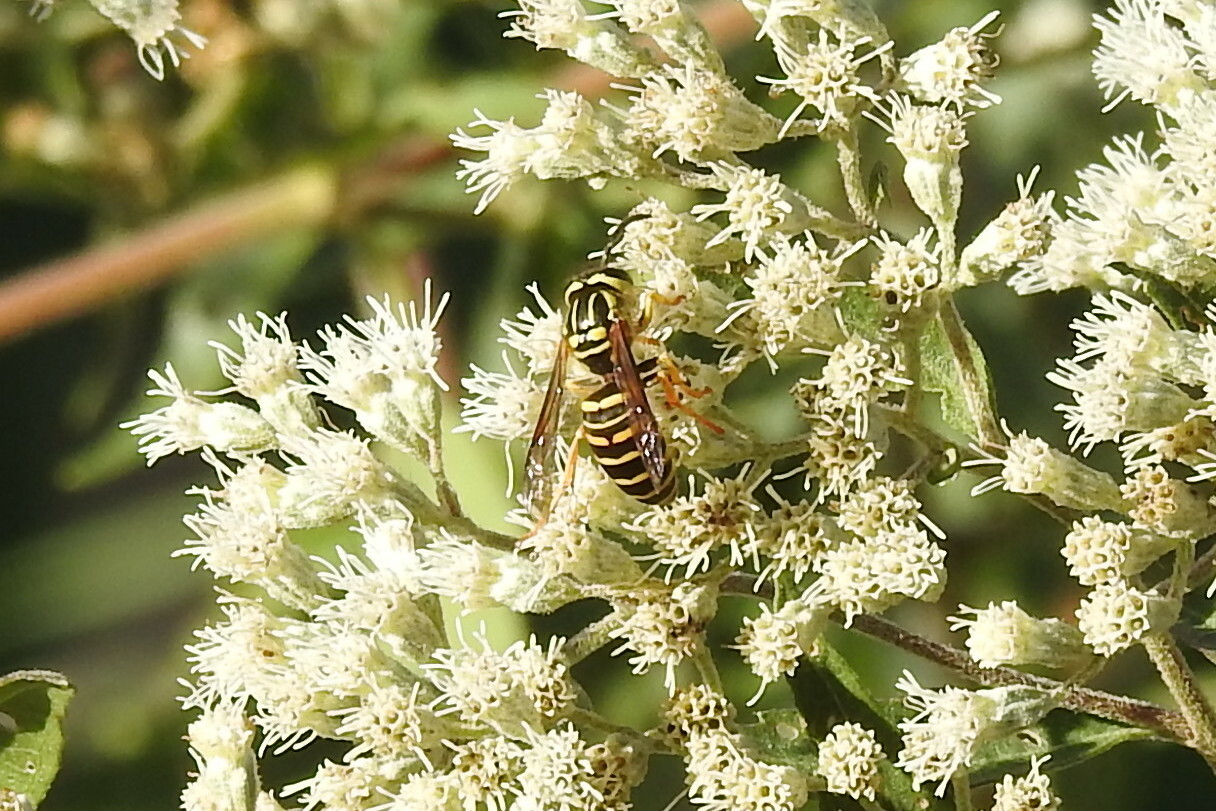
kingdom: Animalia
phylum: Arthropoda
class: Insecta
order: Hymenoptera
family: Vespidae
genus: Vespula
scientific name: Vespula squamosa
